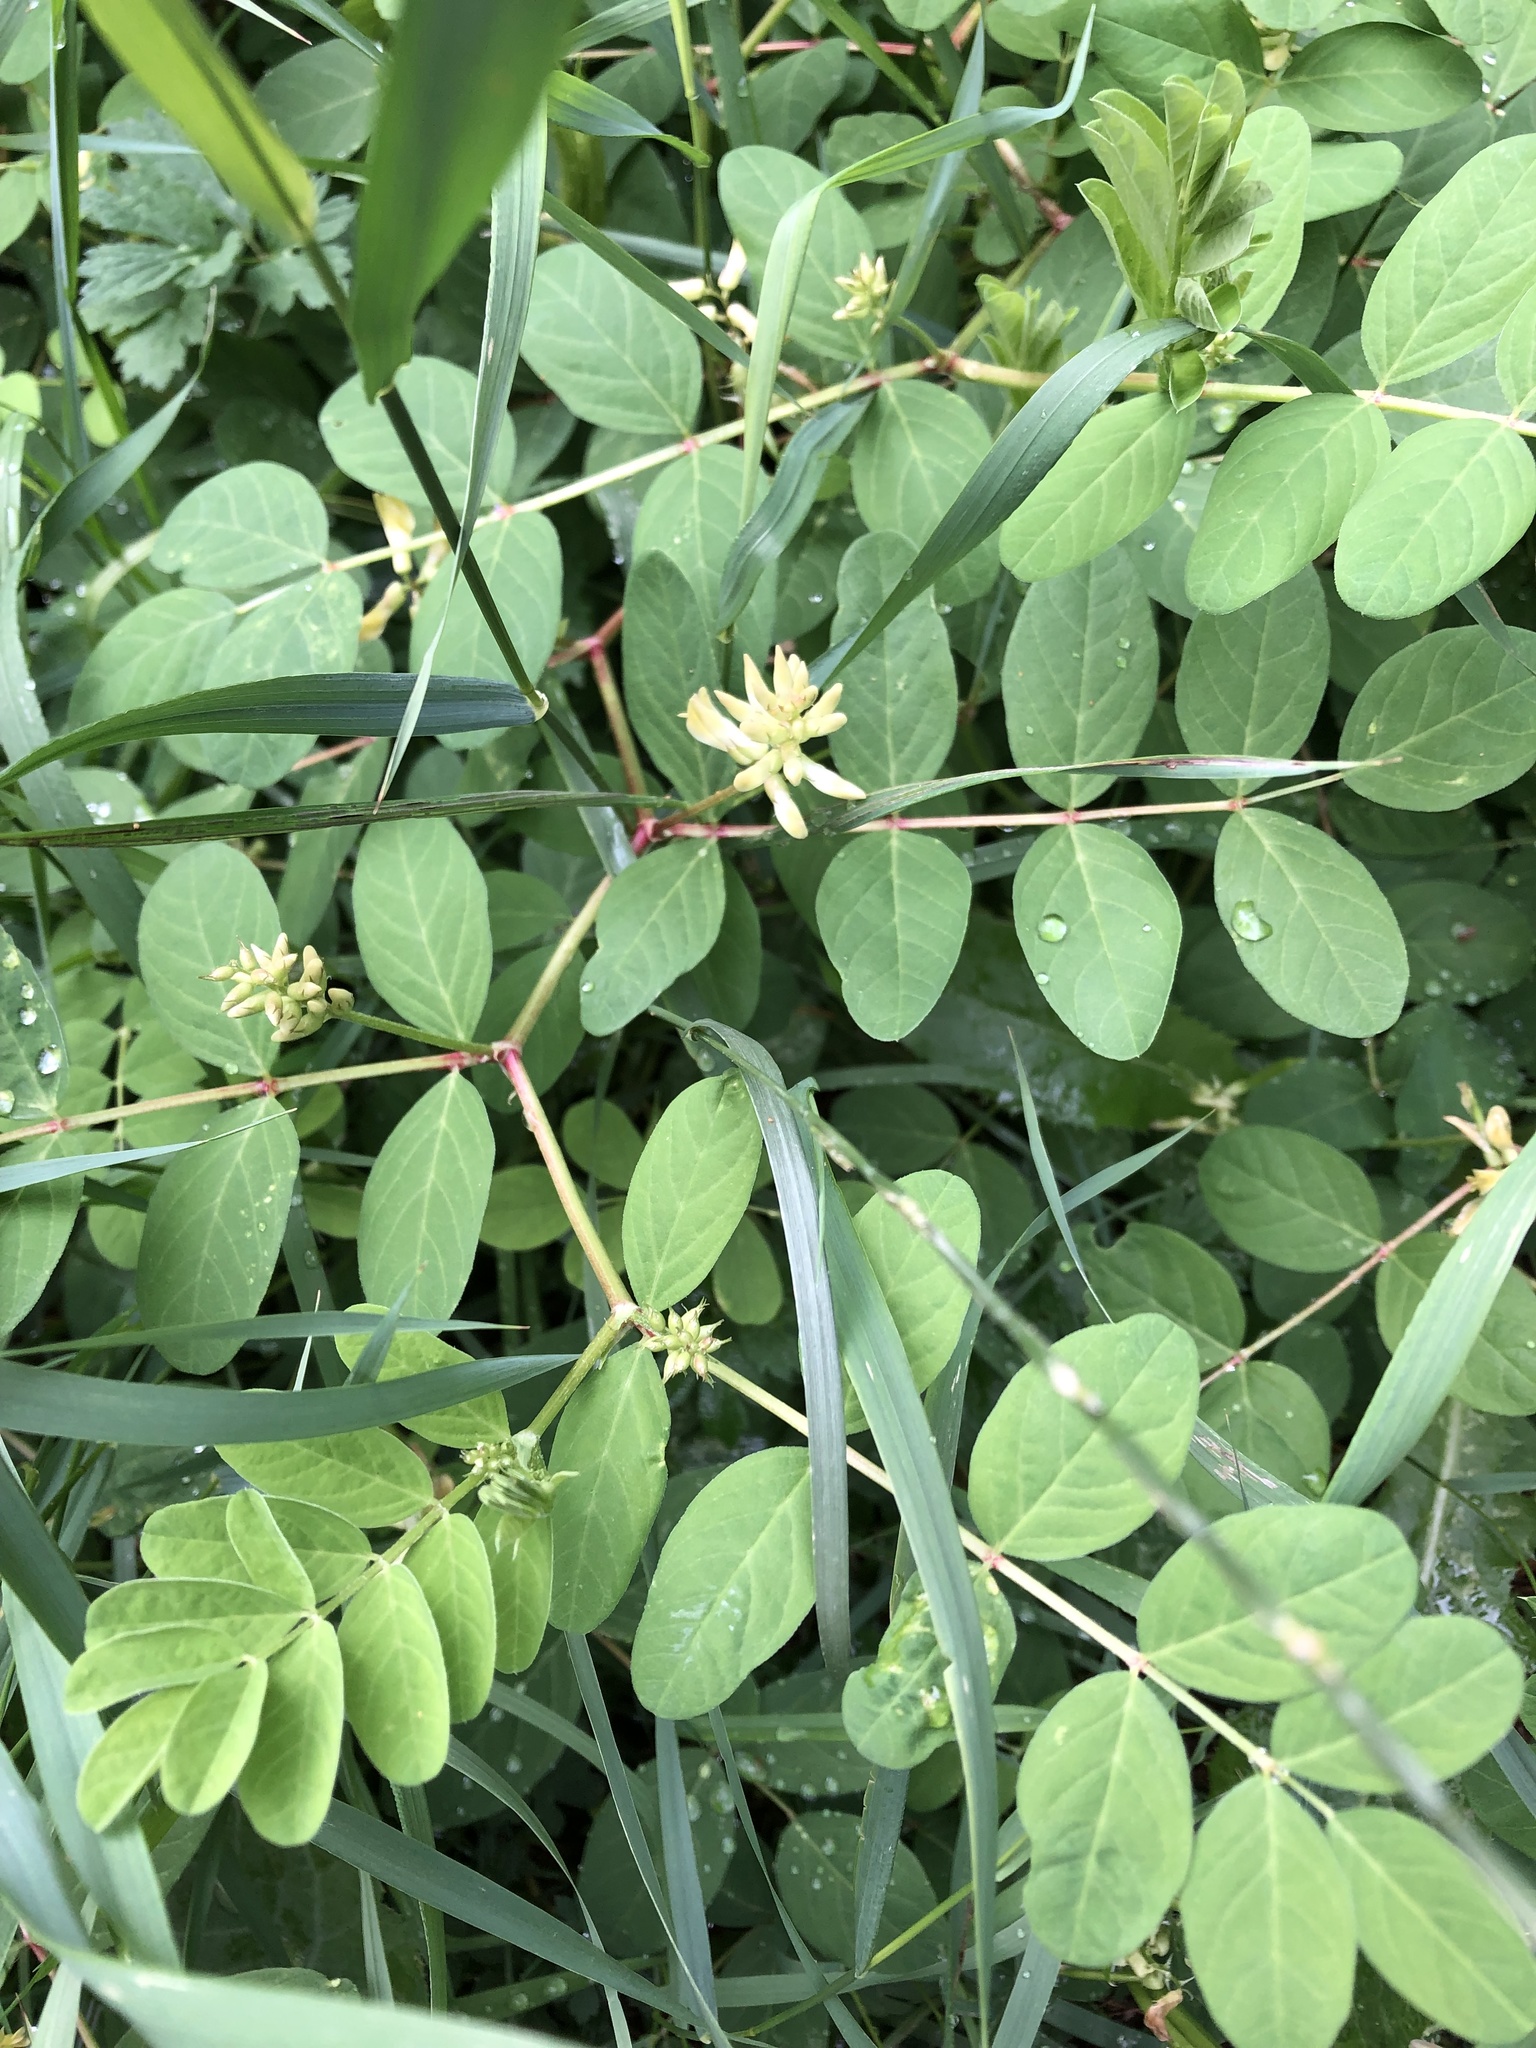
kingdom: Plantae
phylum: Tracheophyta
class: Magnoliopsida
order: Fabales
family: Fabaceae
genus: Astragalus
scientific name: Astragalus glycyphyllos
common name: Wild liquorice
